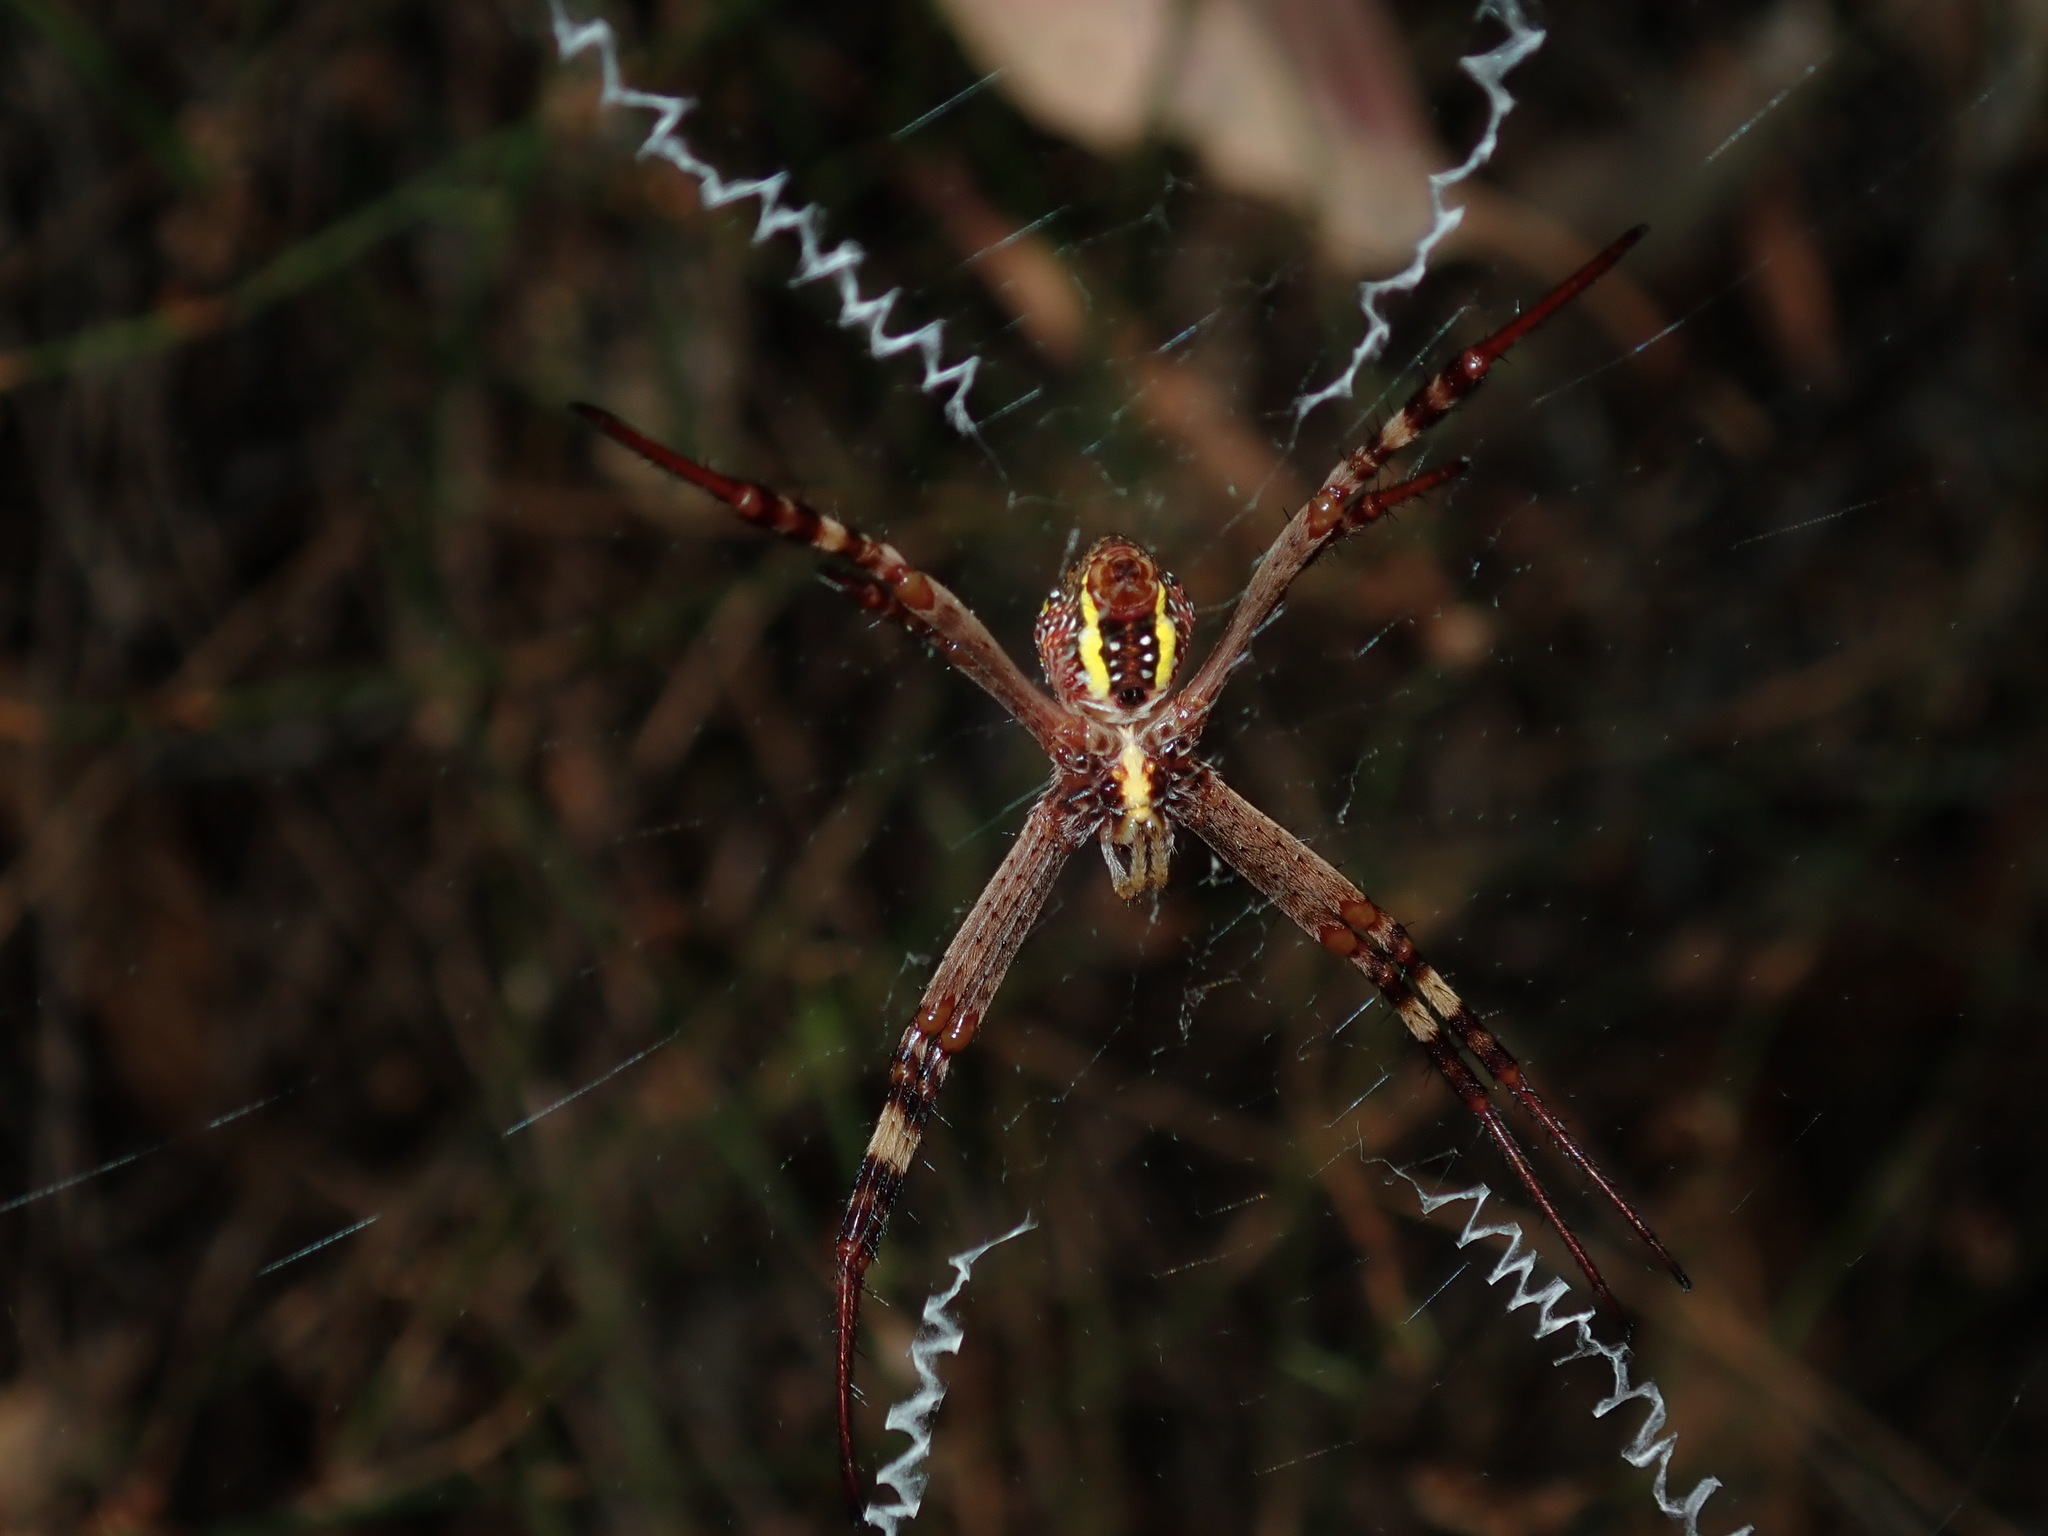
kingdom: Animalia
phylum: Arthropoda
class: Arachnida
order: Araneae
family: Araneidae
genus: Argiope
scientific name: Argiope keyserlingi
